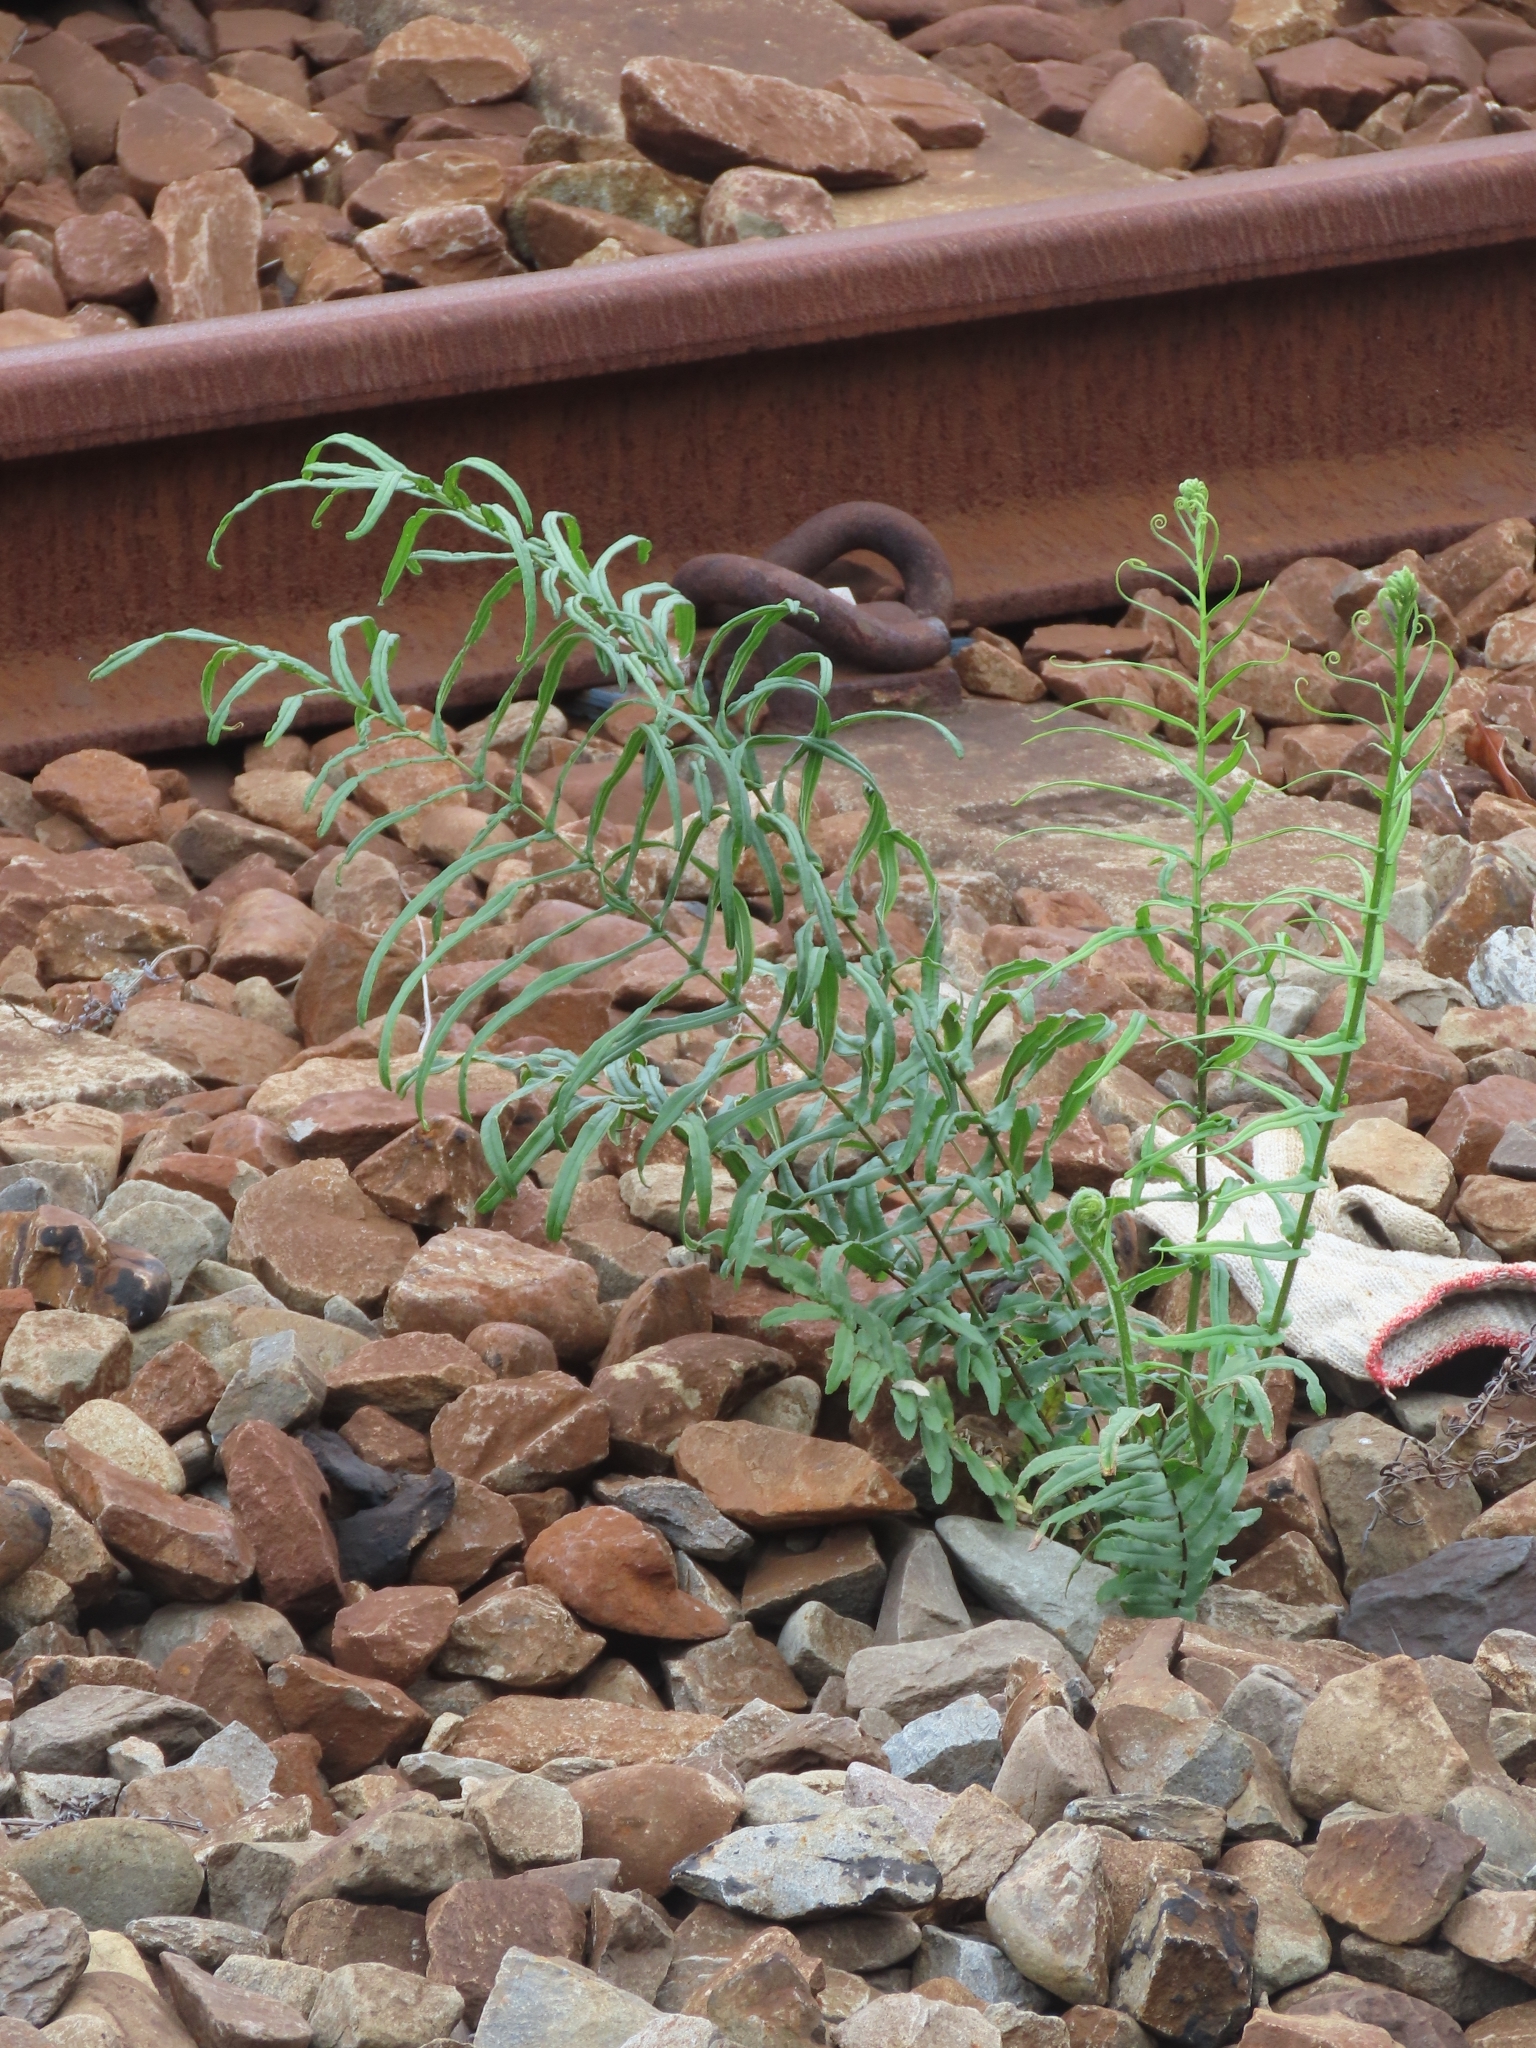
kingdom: Plantae
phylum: Tracheophyta
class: Polypodiopsida
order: Polypodiales
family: Pteridaceae
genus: Pteris
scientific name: Pteris vittata
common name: Ladder brake
